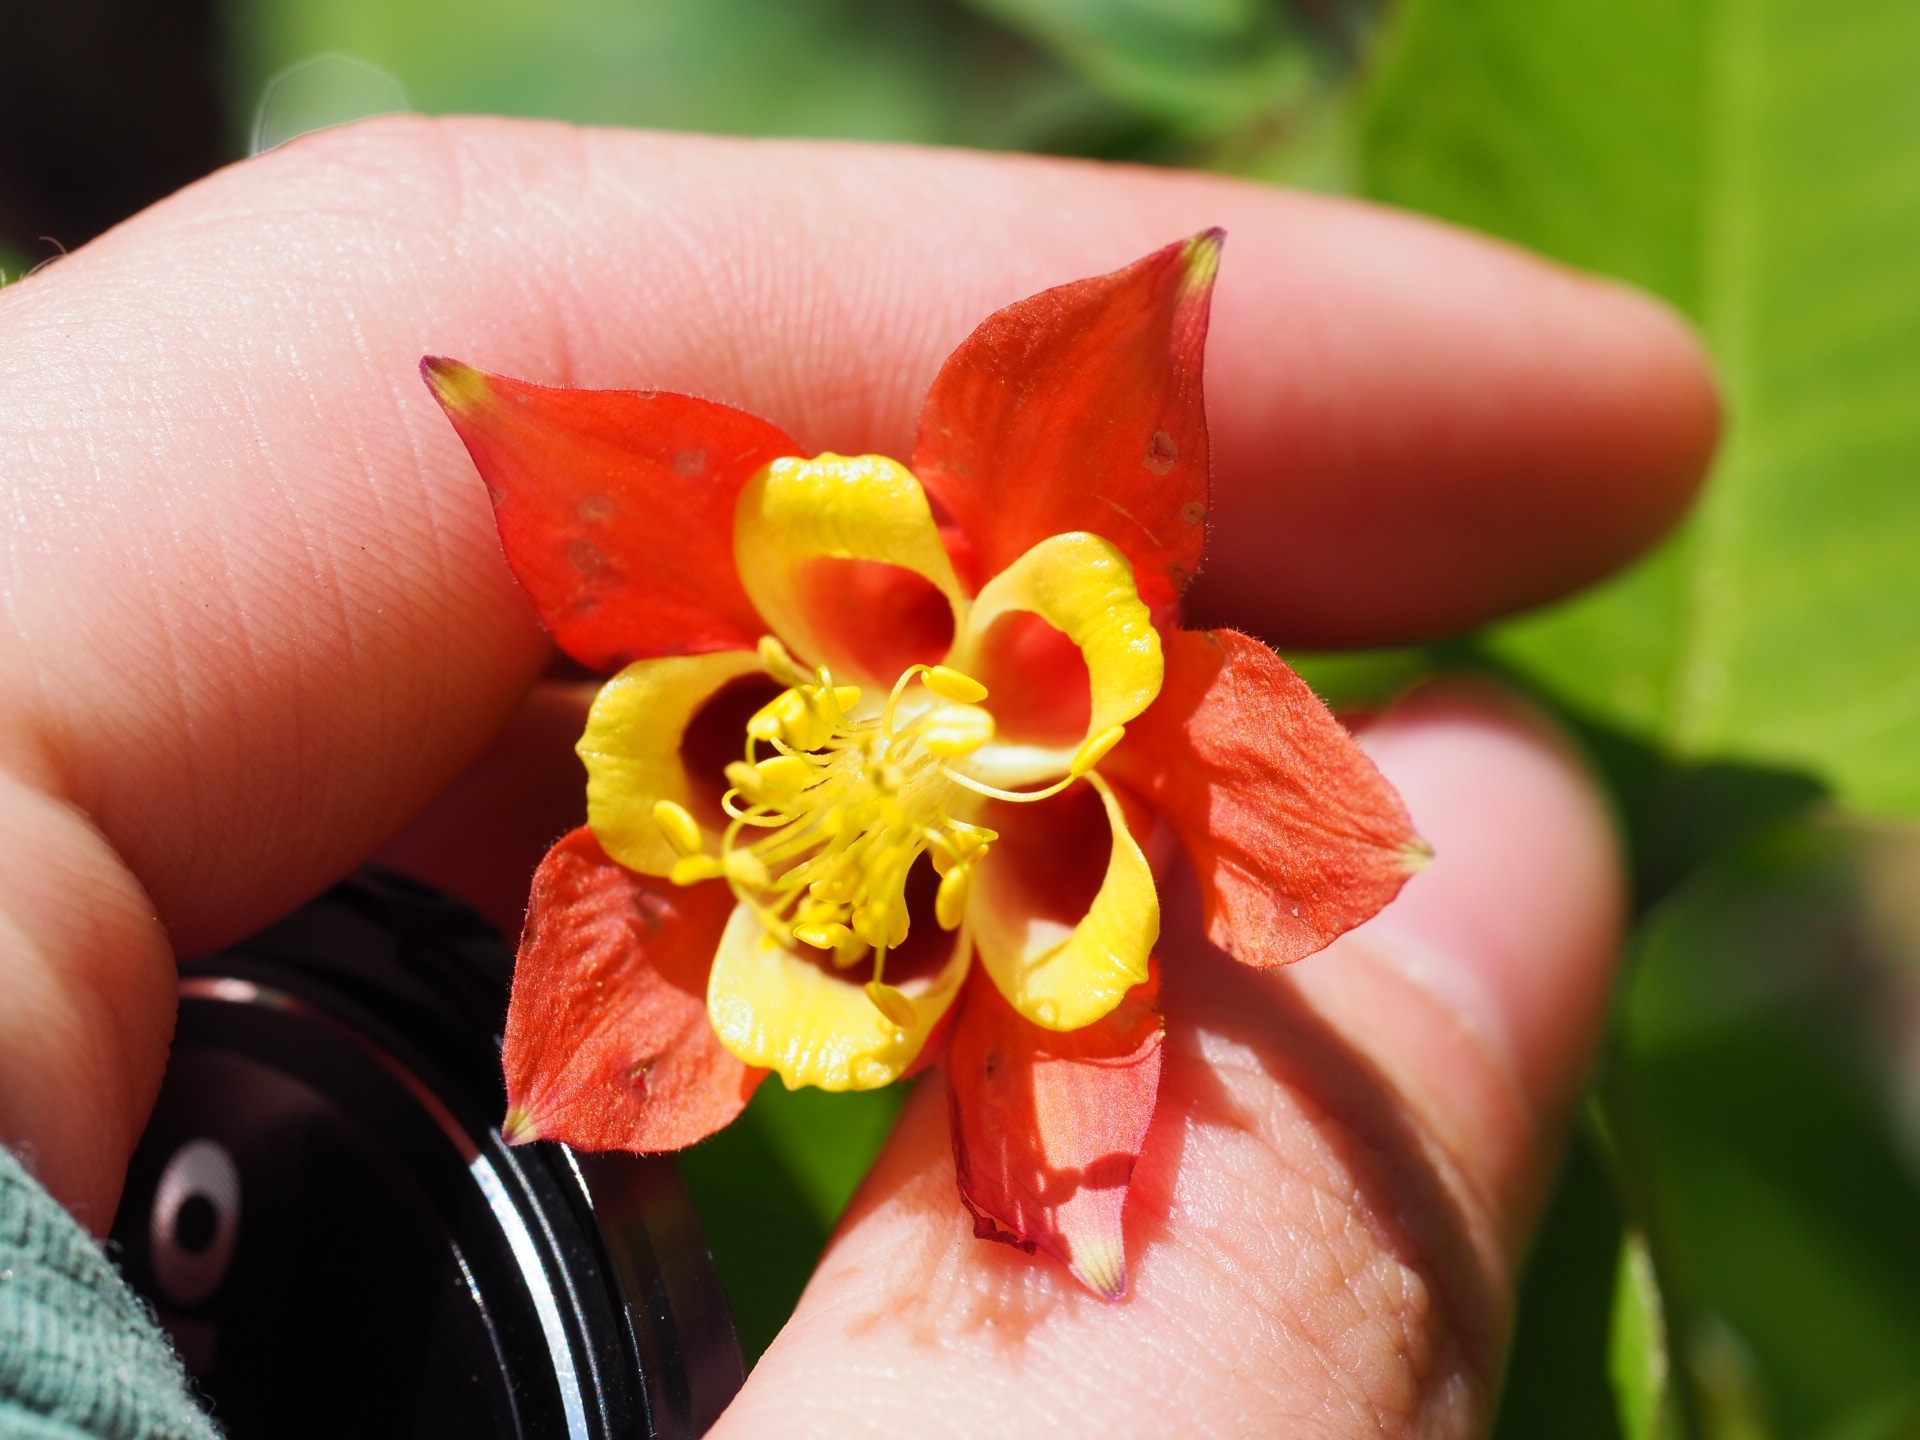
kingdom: Plantae
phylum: Tracheophyta
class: Magnoliopsida
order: Ranunculales
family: Ranunculaceae
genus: Aquilegia
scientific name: Aquilegia canadensis
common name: American columbine
